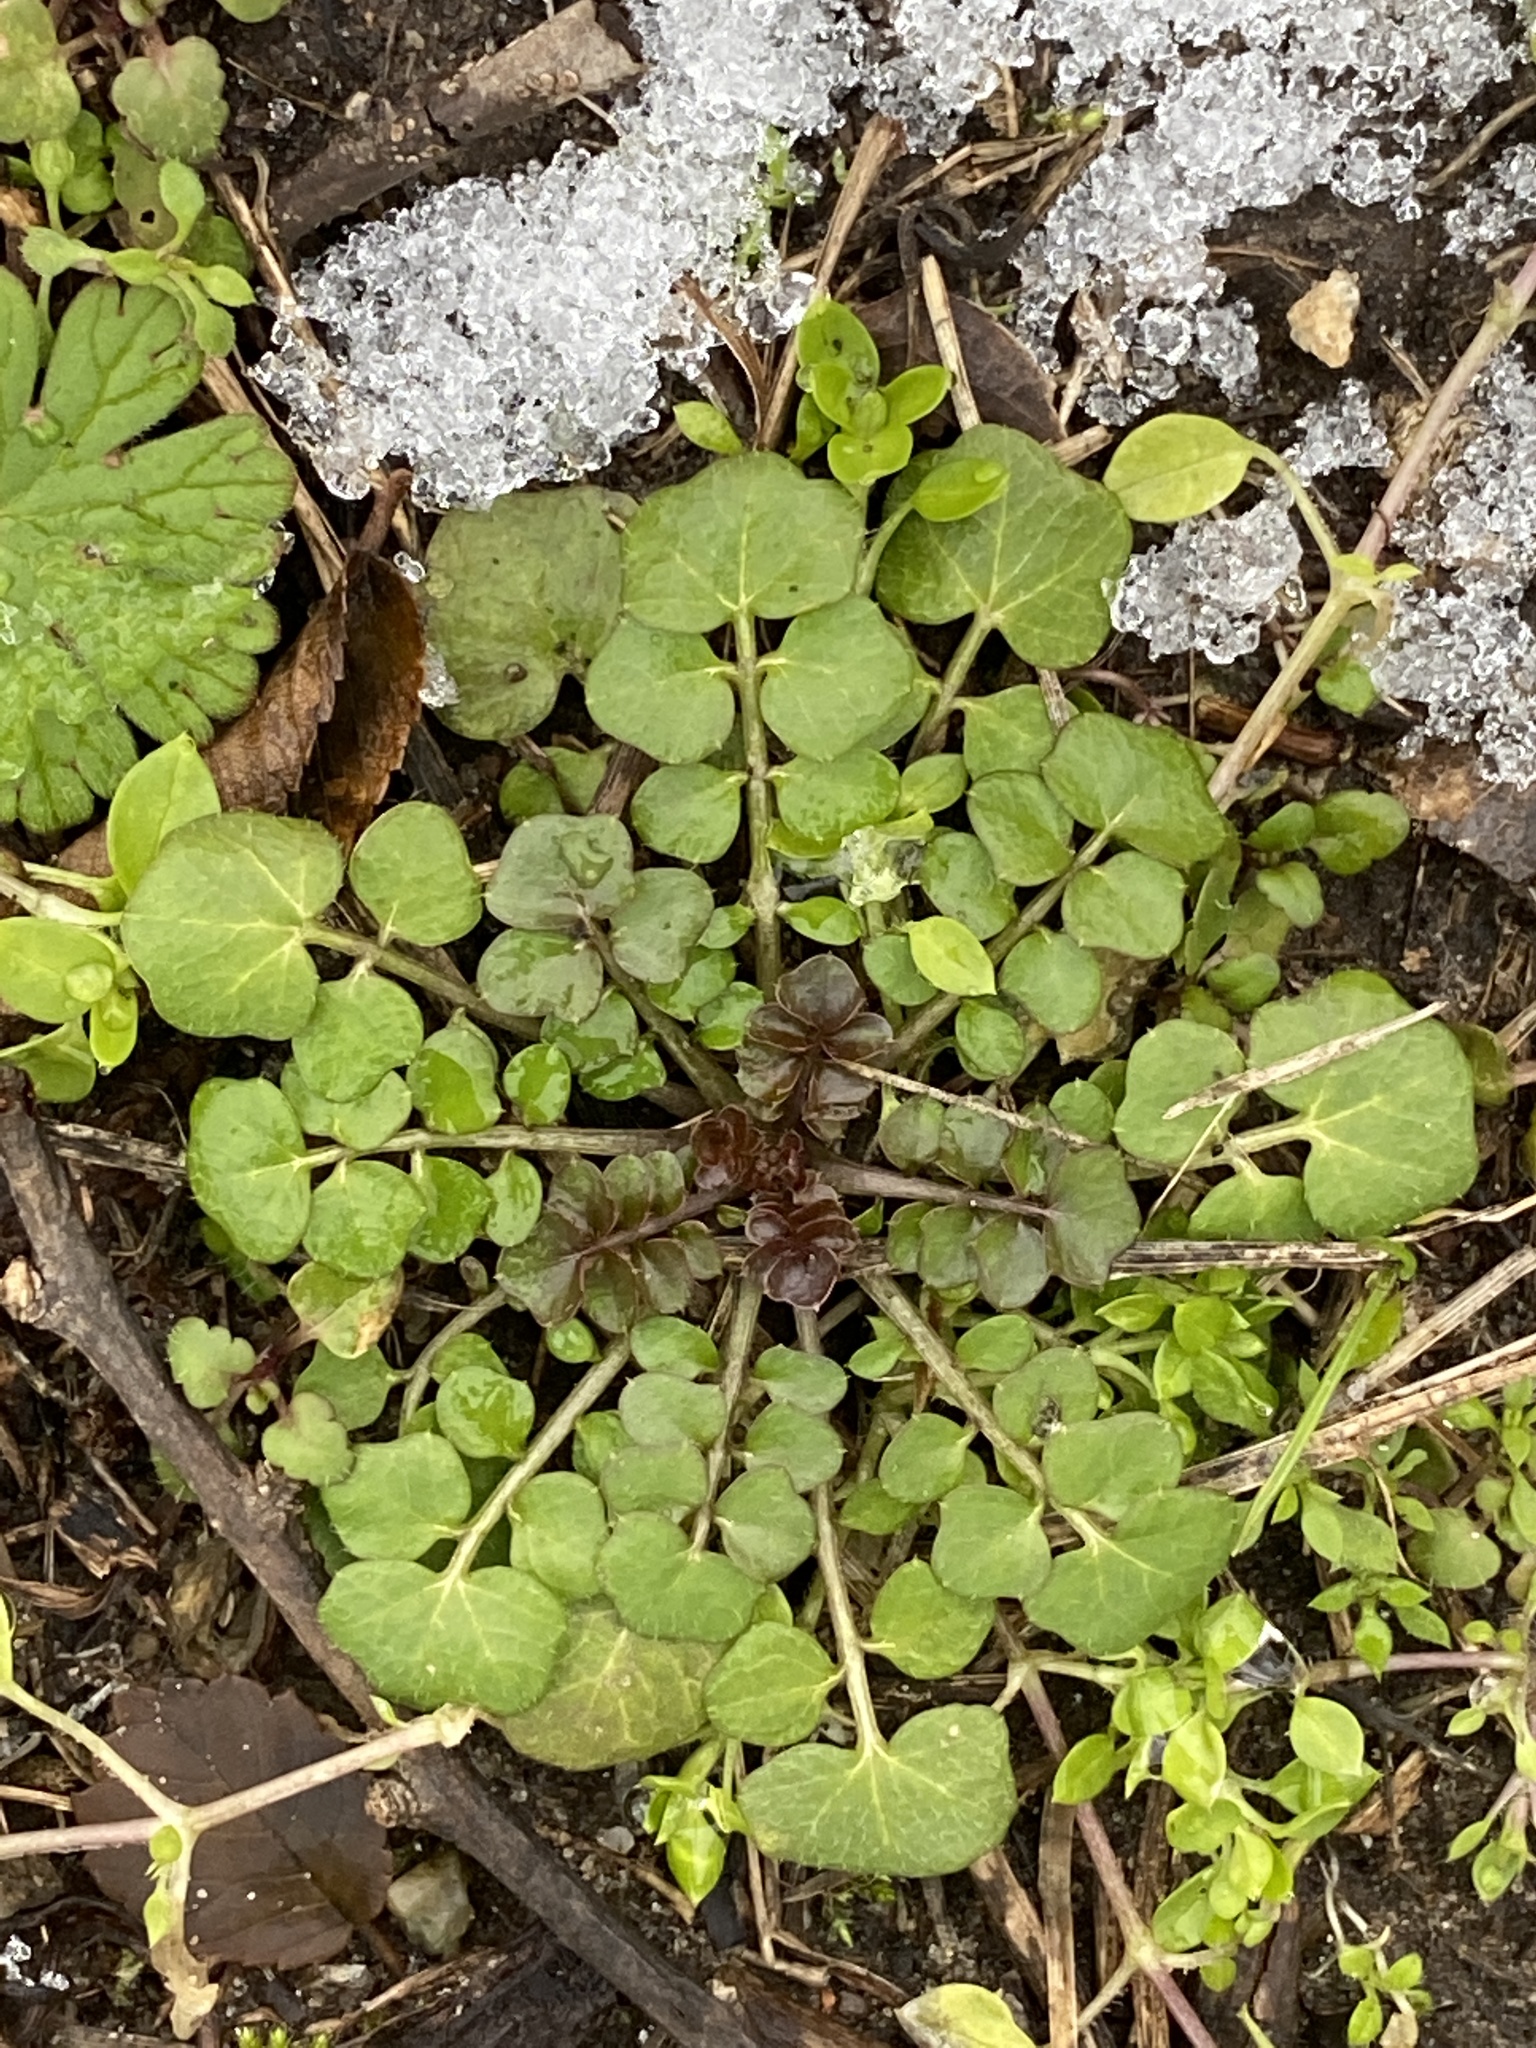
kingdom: Plantae
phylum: Tracheophyta
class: Magnoliopsida
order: Brassicales
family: Brassicaceae
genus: Cardamine
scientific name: Cardamine hirsuta
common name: Hairy bittercress
